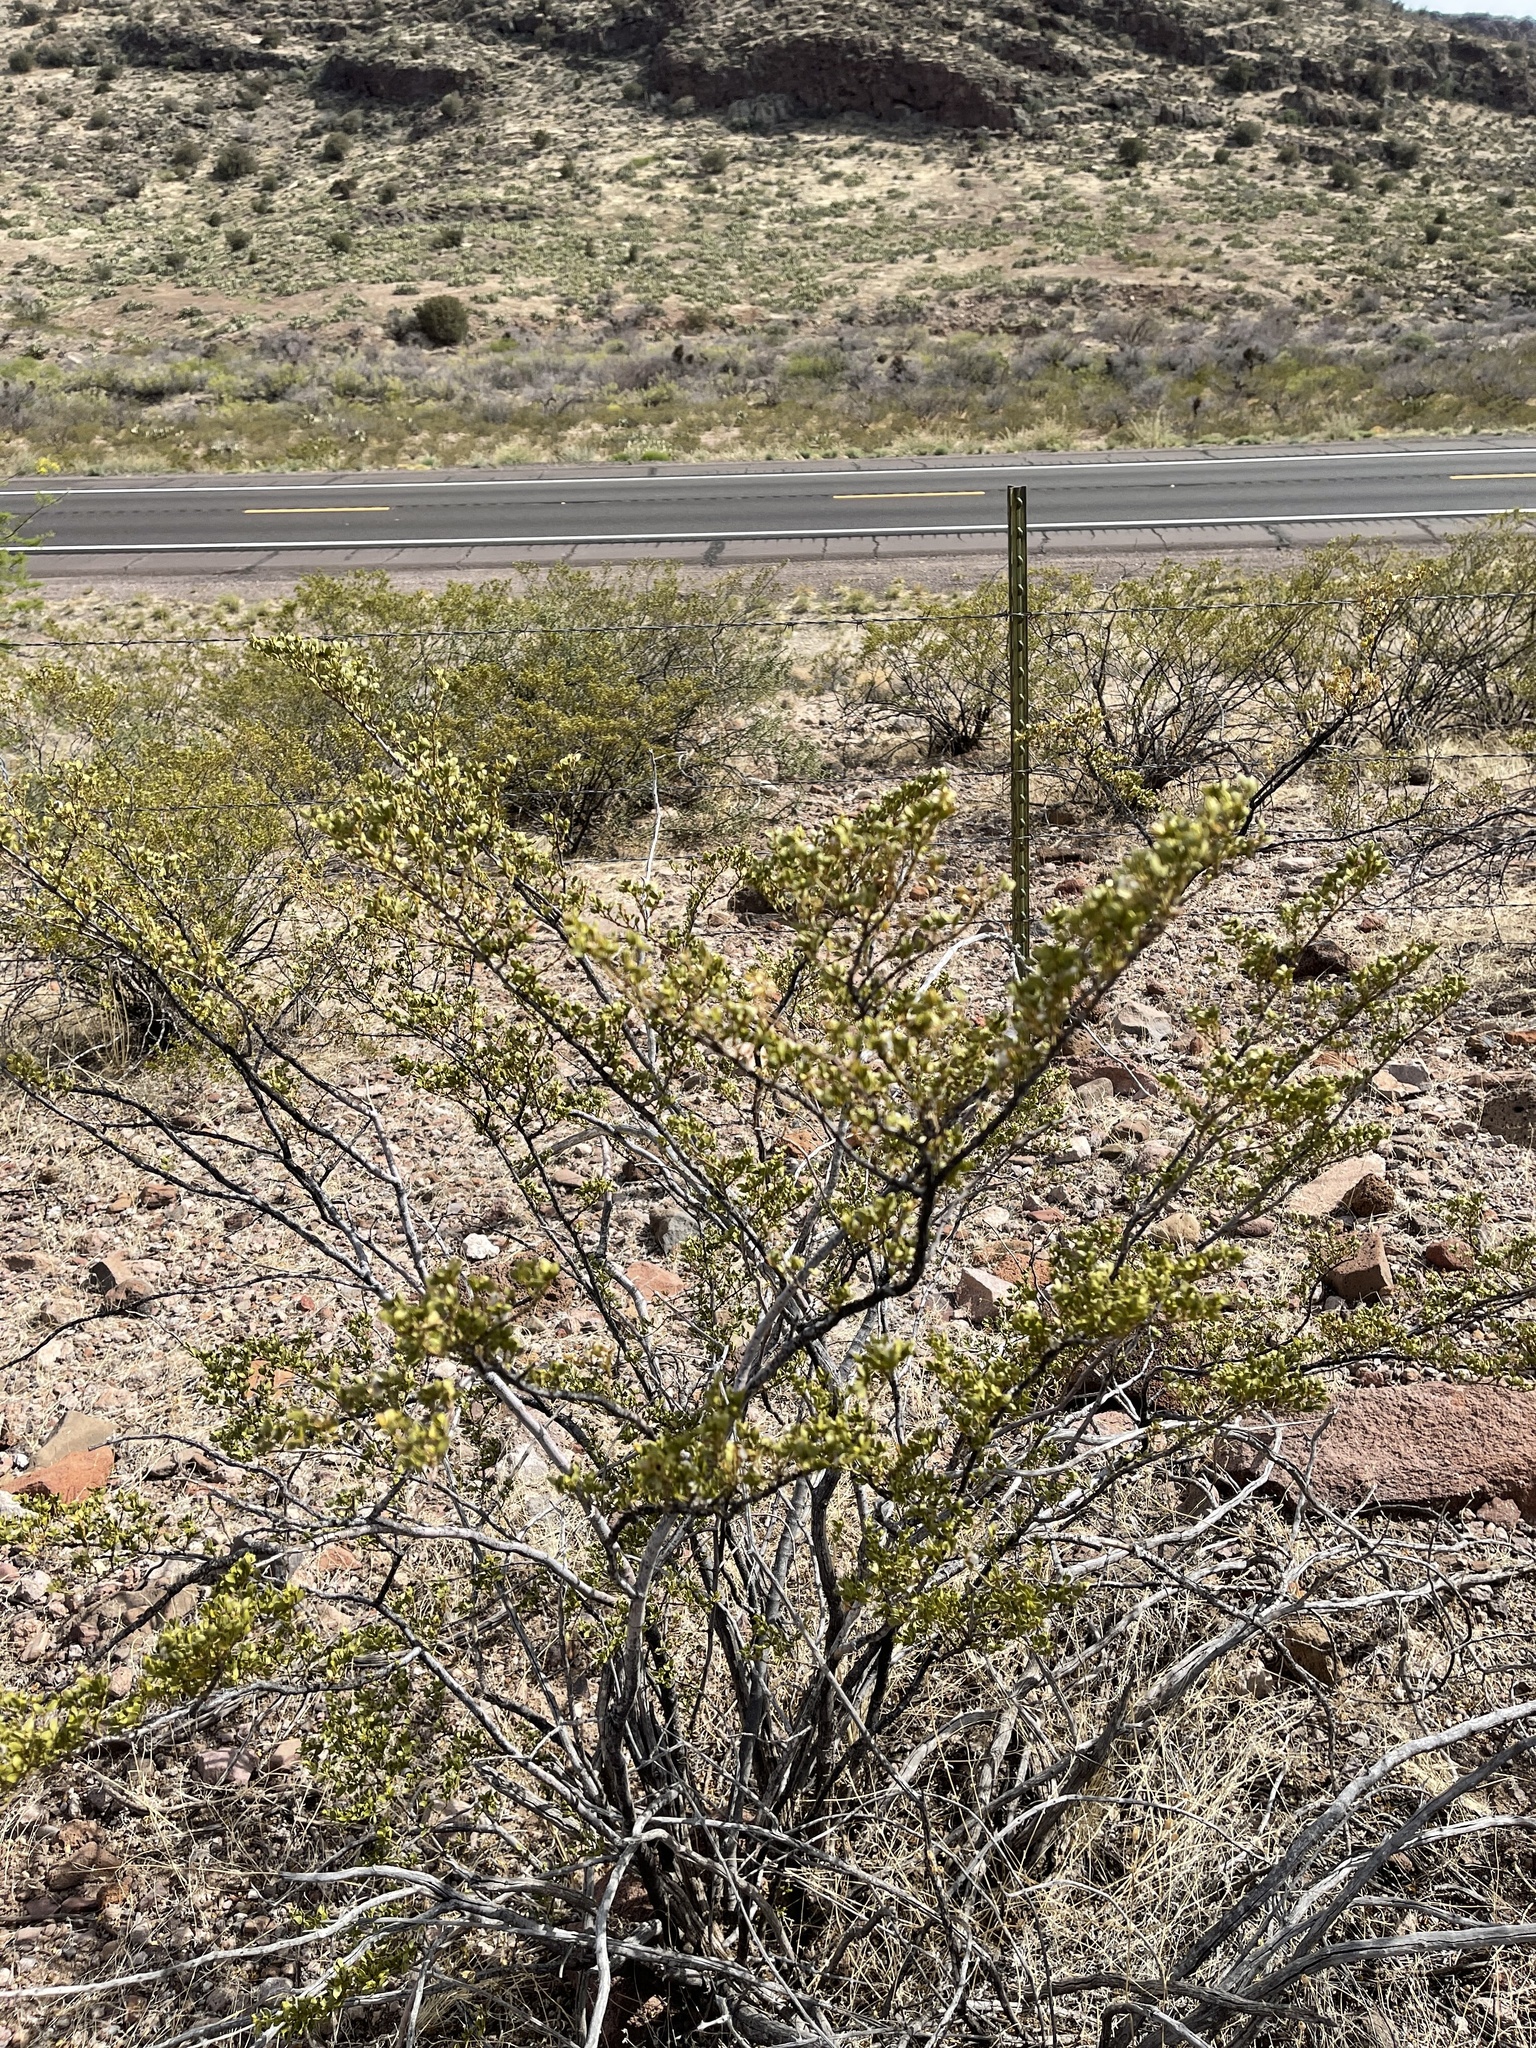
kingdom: Plantae
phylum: Tracheophyta
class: Magnoliopsida
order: Zygophyllales
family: Zygophyllaceae
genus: Larrea
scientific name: Larrea tridentata
